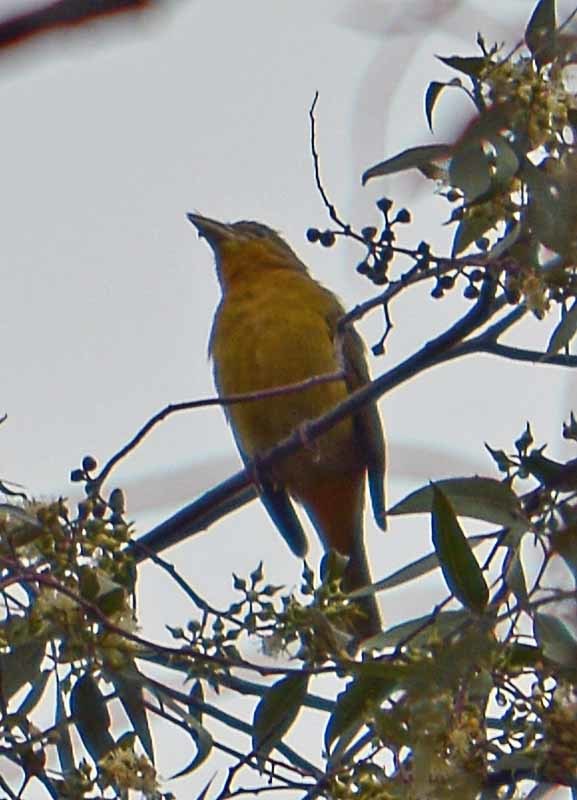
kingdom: Animalia
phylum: Chordata
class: Aves
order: Passeriformes
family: Cardinalidae
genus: Piranga
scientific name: Piranga rubra
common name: Summer tanager
